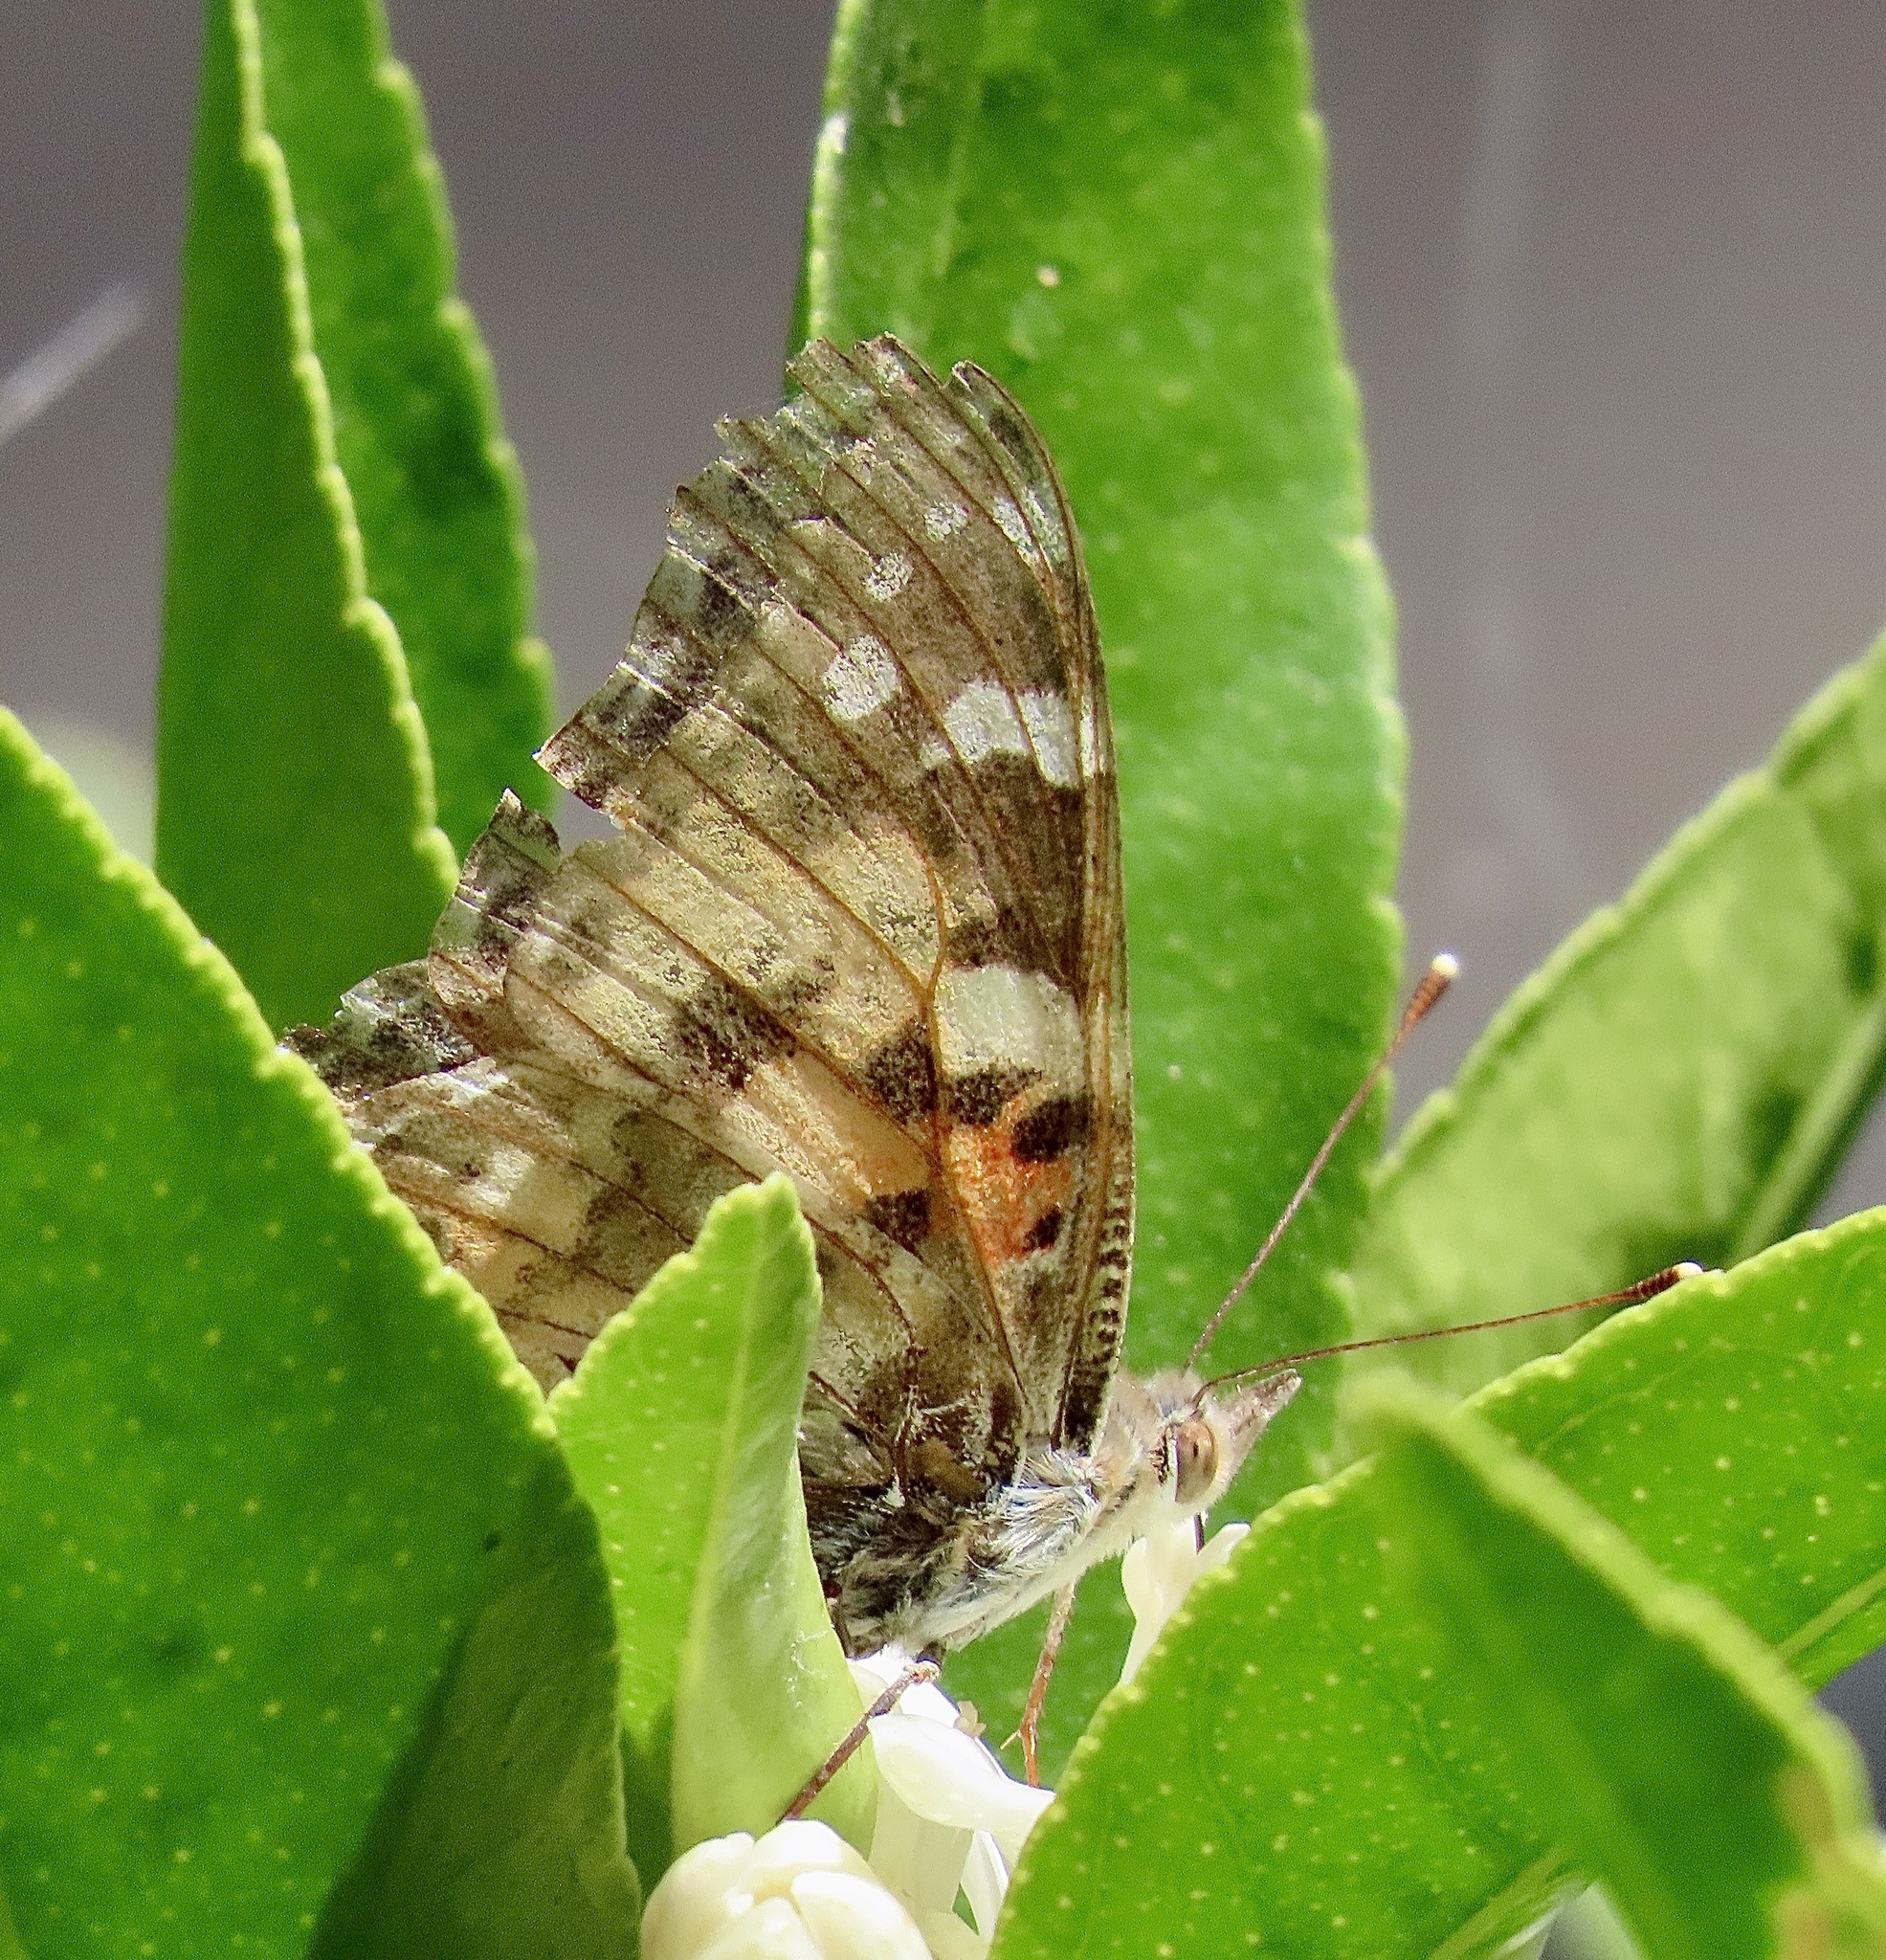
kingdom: Animalia
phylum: Arthropoda
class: Insecta
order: Lepidoptera
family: Nymphalidae
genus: Vanessa
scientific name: Vanessa cardui
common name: Painted lady
